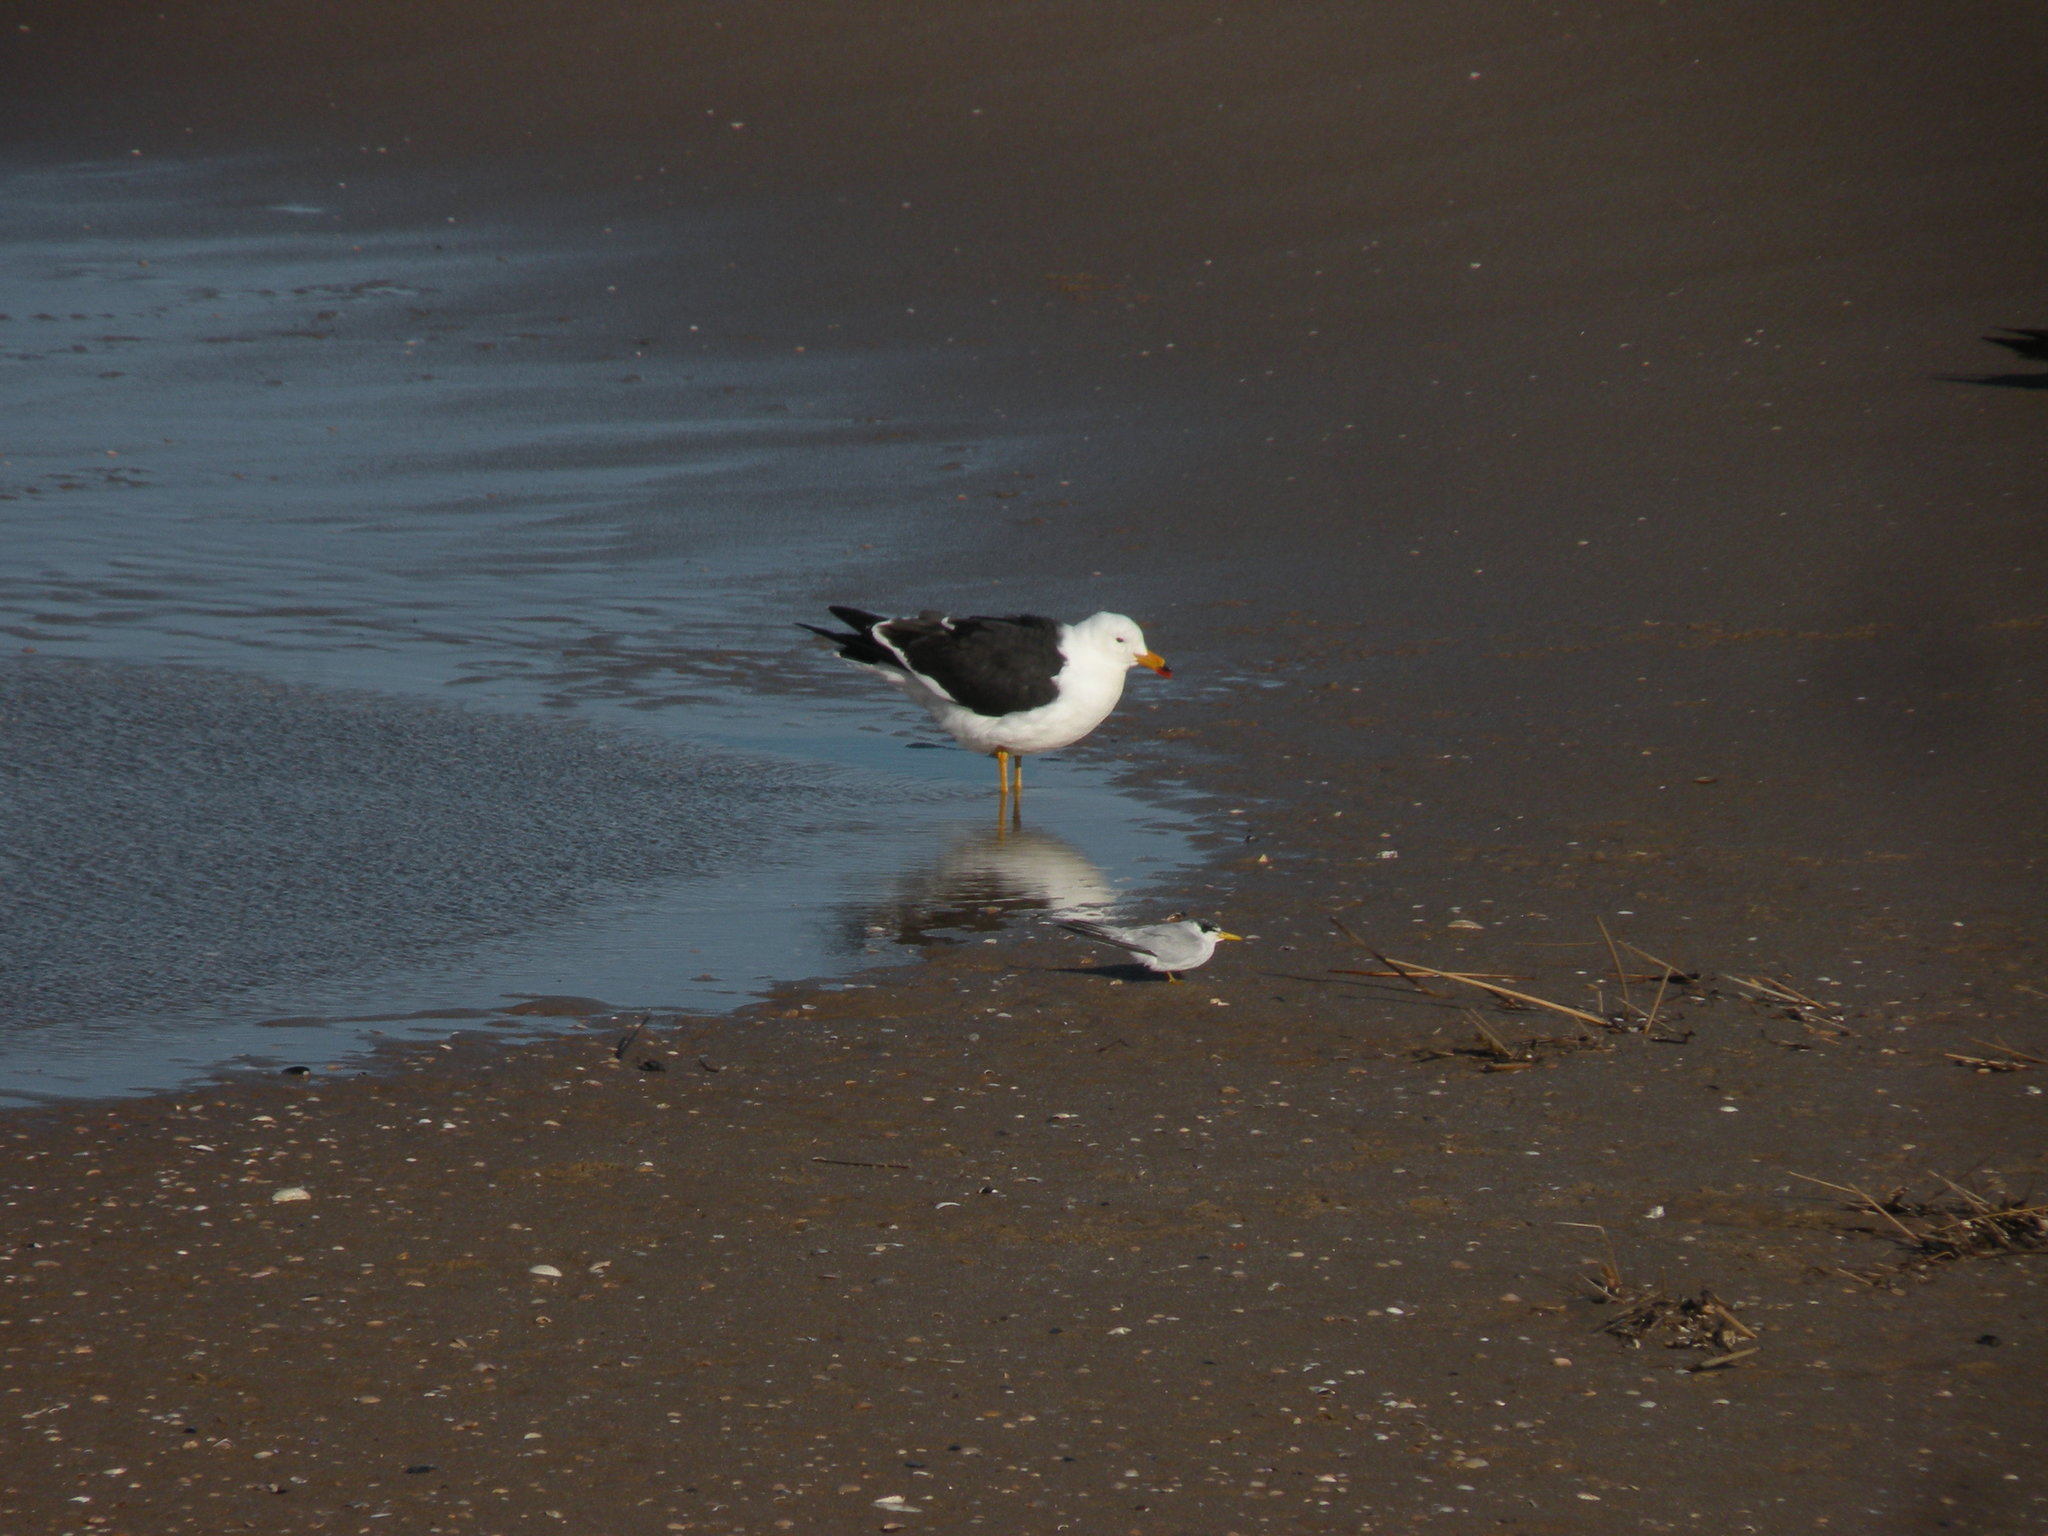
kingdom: Animalia
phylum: Chordata
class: Aves
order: Charadriiformes
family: Laridae
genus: Larus
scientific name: Larus atlanticus
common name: Olrog's gull
